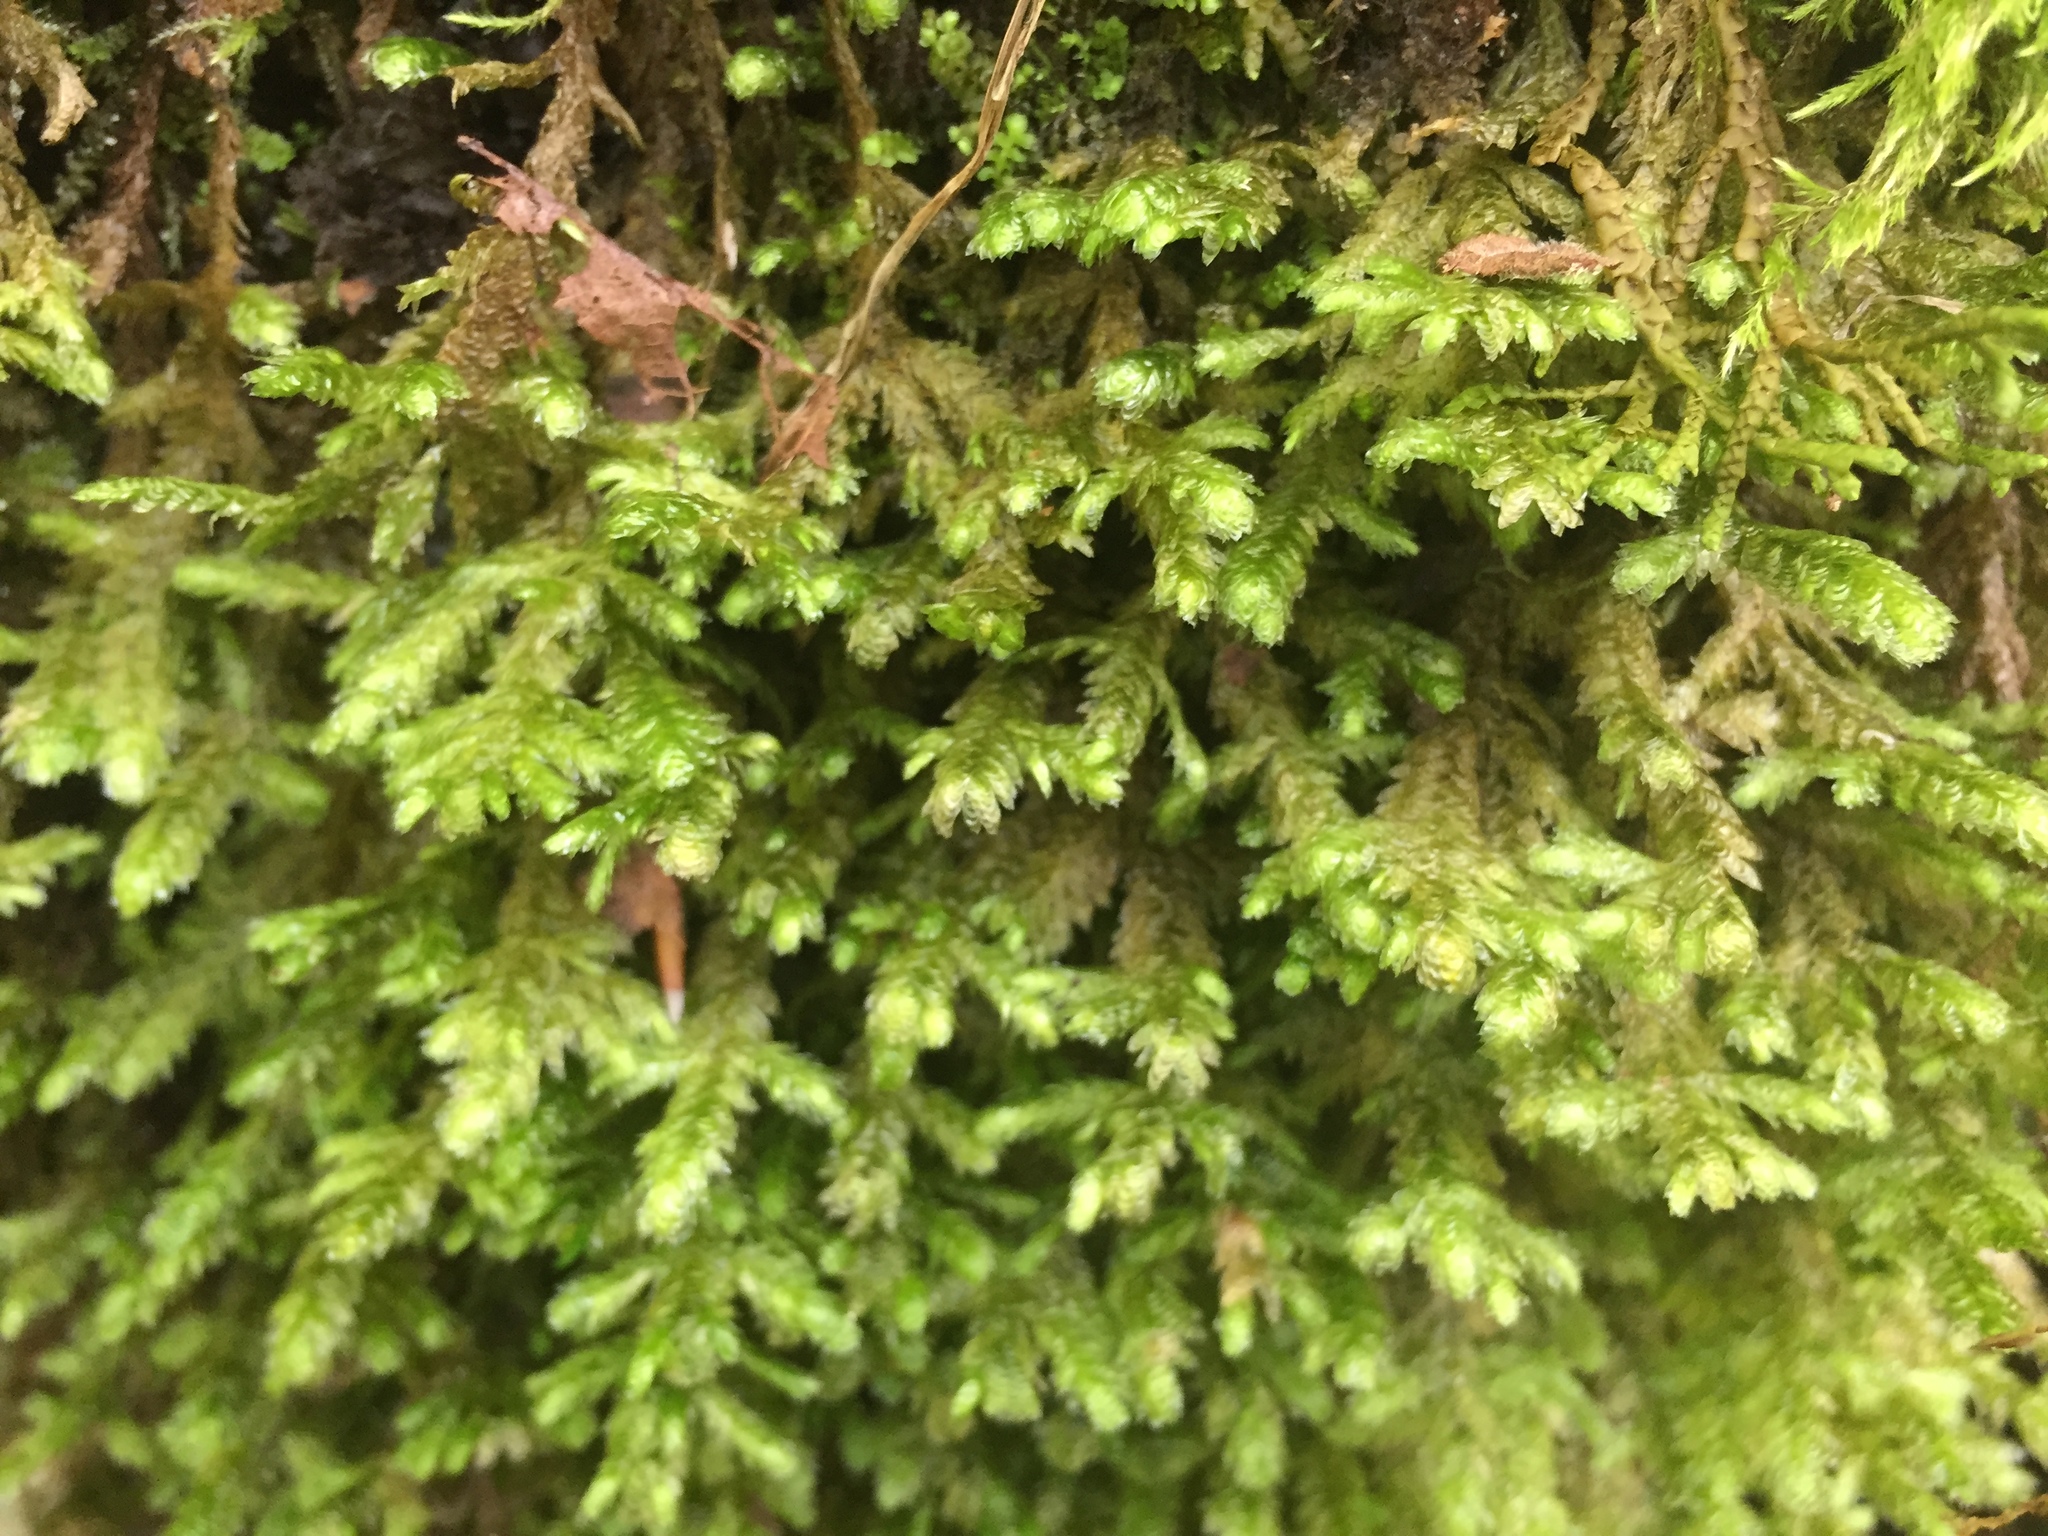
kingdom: Plantae
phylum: Bryophyta
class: Bryopsida
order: Hypnales
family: Neckeraceae
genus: Exsertotheca
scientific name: Exsertotheca crispa
